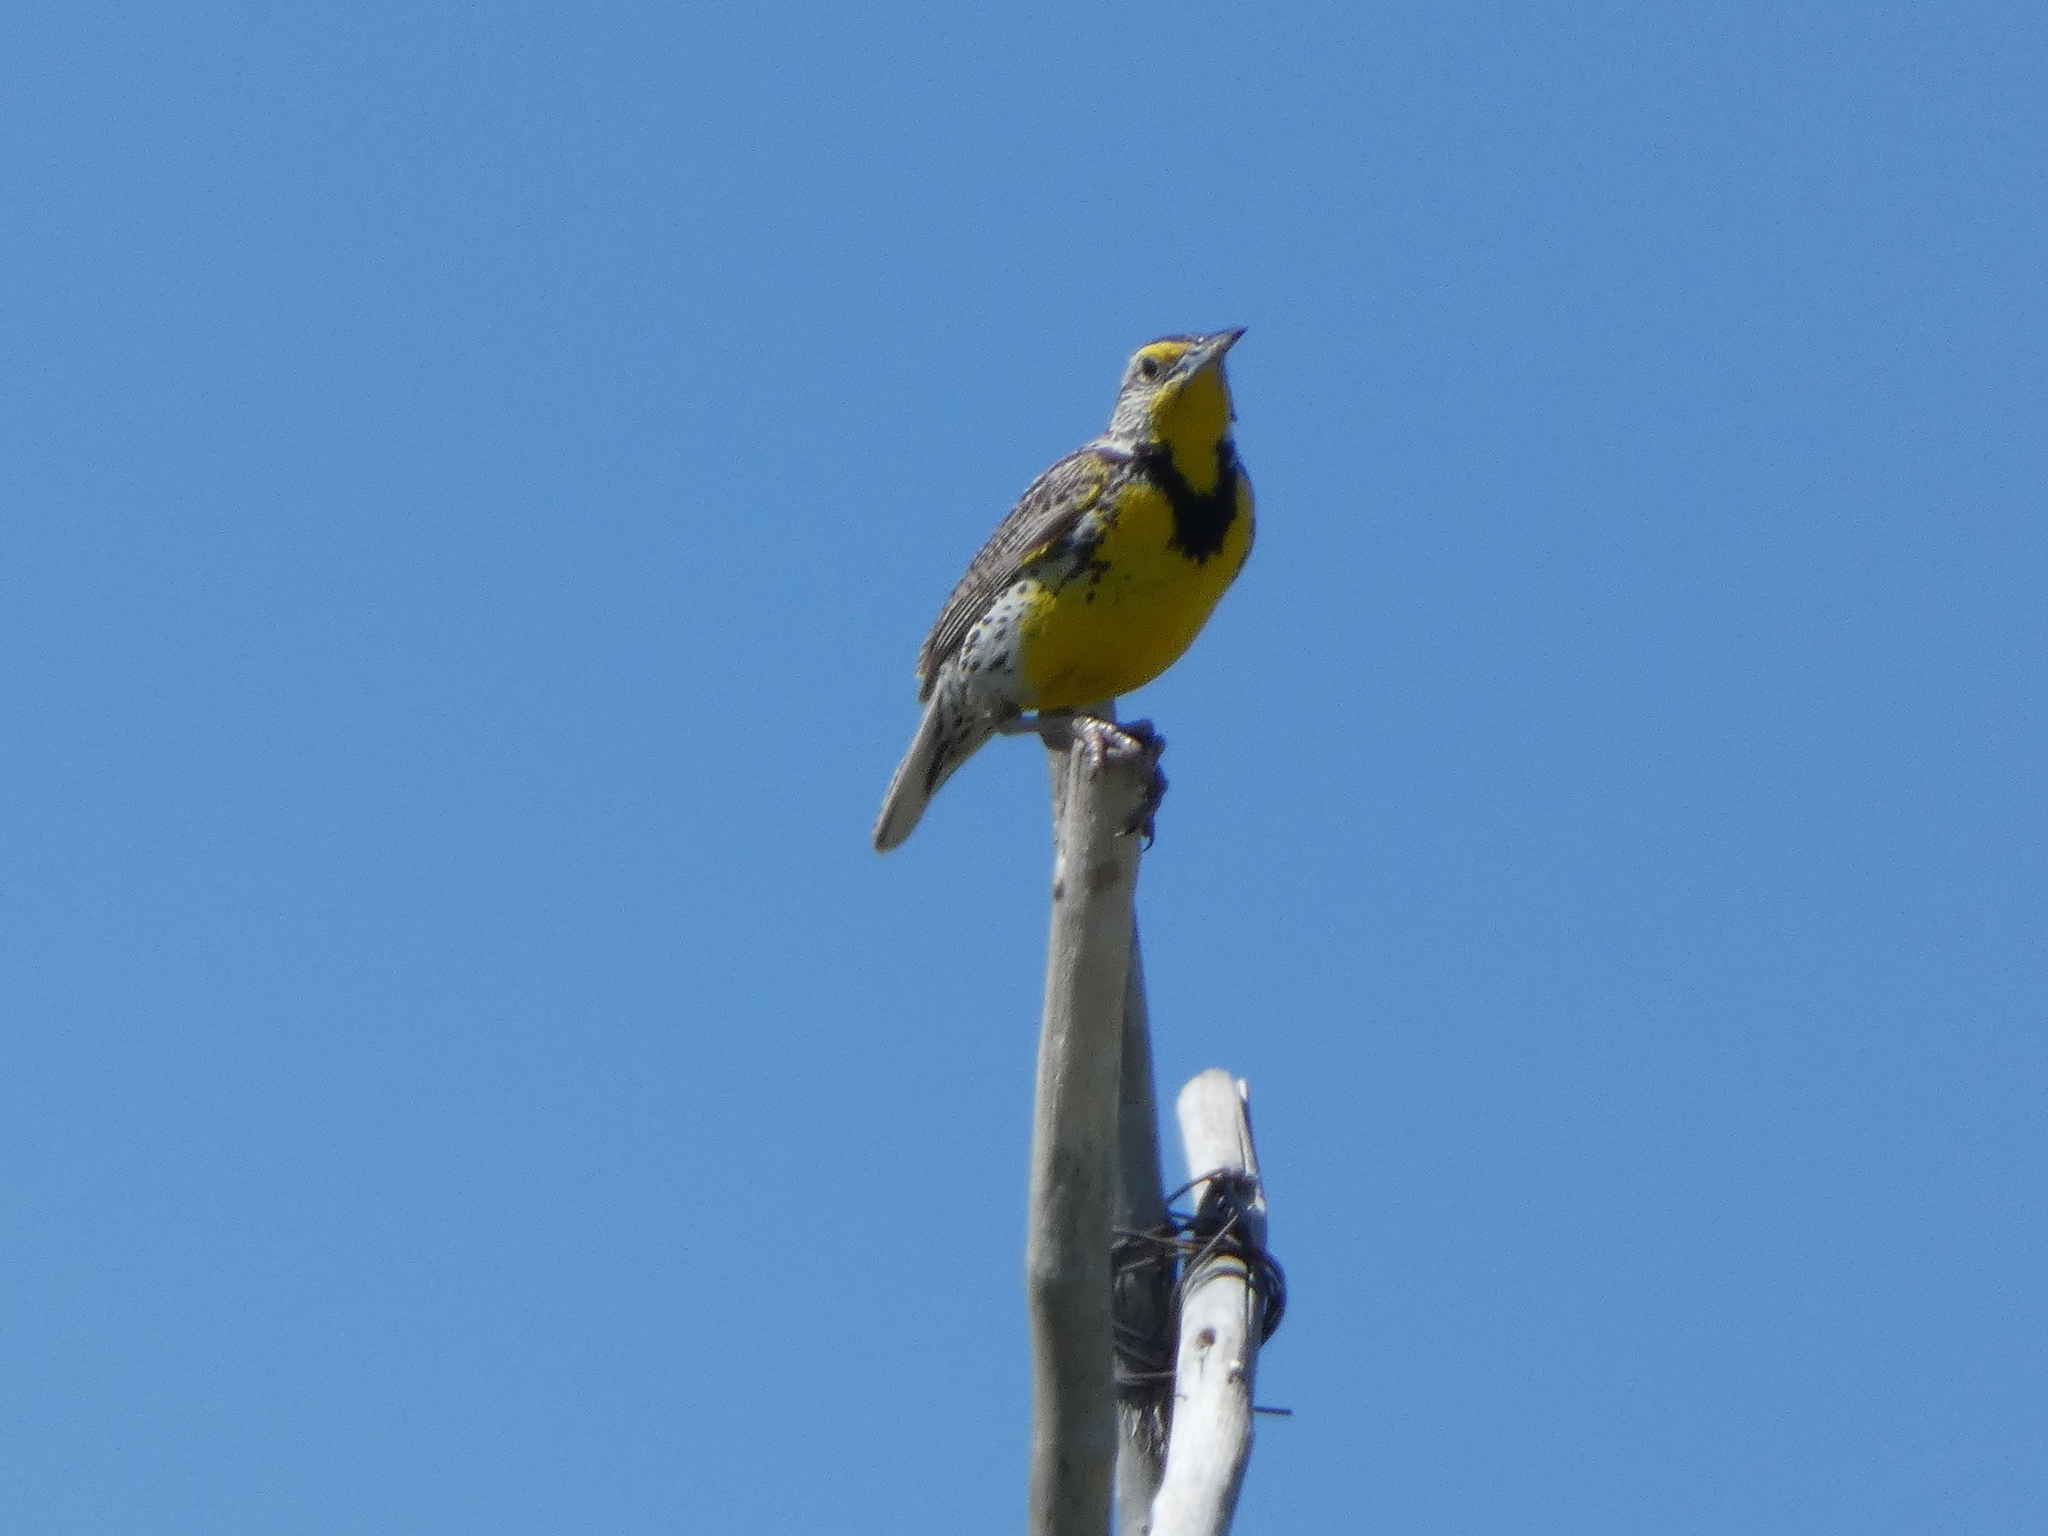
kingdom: Animalia
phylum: Chordata
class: Aves
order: Passeriformes
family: Icteridae
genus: Sturnella
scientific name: Sturnella neglecta
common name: Western meadowlark
